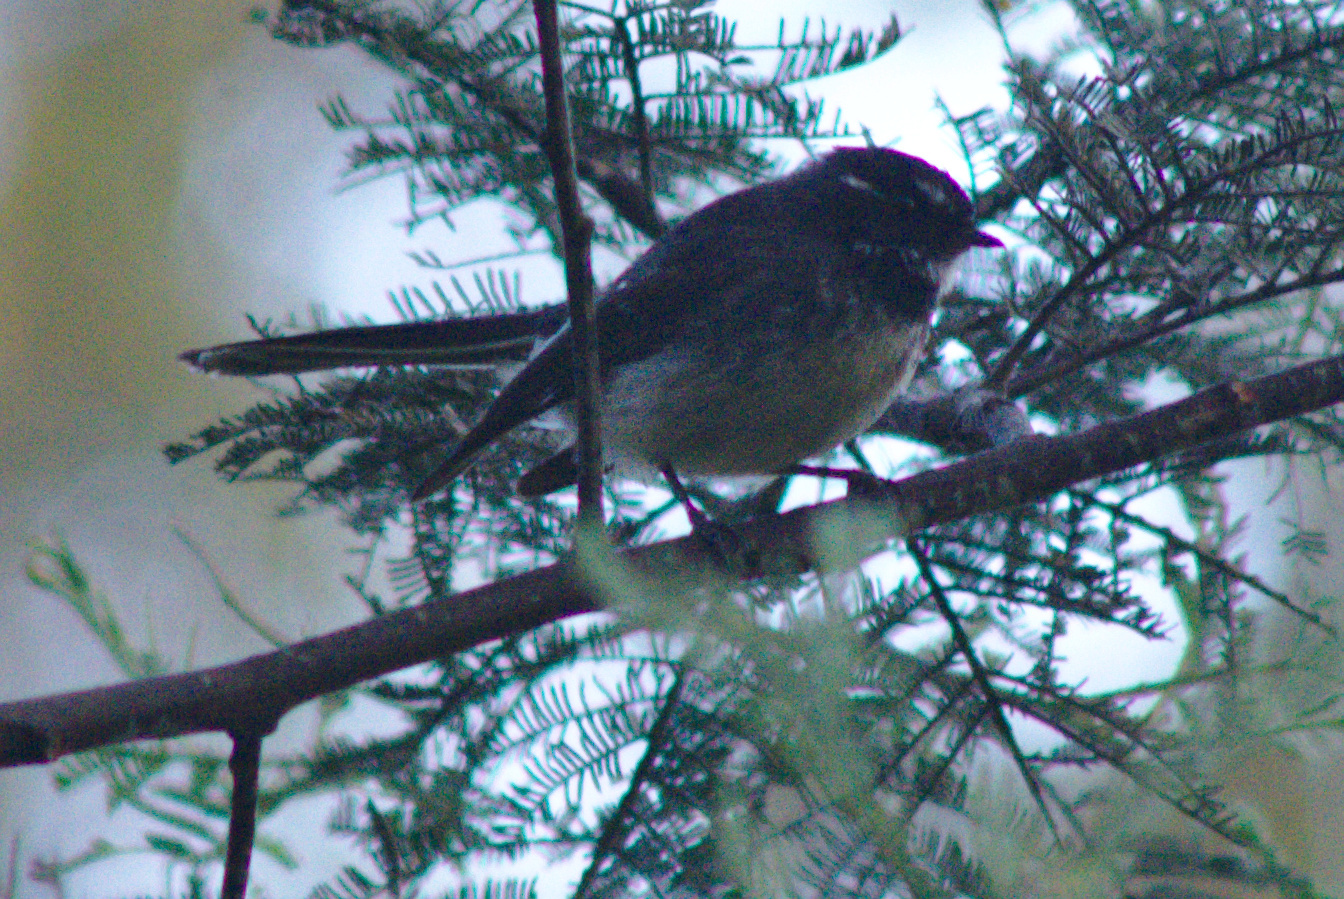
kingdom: Animalia
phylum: Chordata
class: Aves
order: Passeriformes
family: Rhipiduridae
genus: Rhipidura
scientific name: Rhipidura albiscapa
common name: Grey fantail
